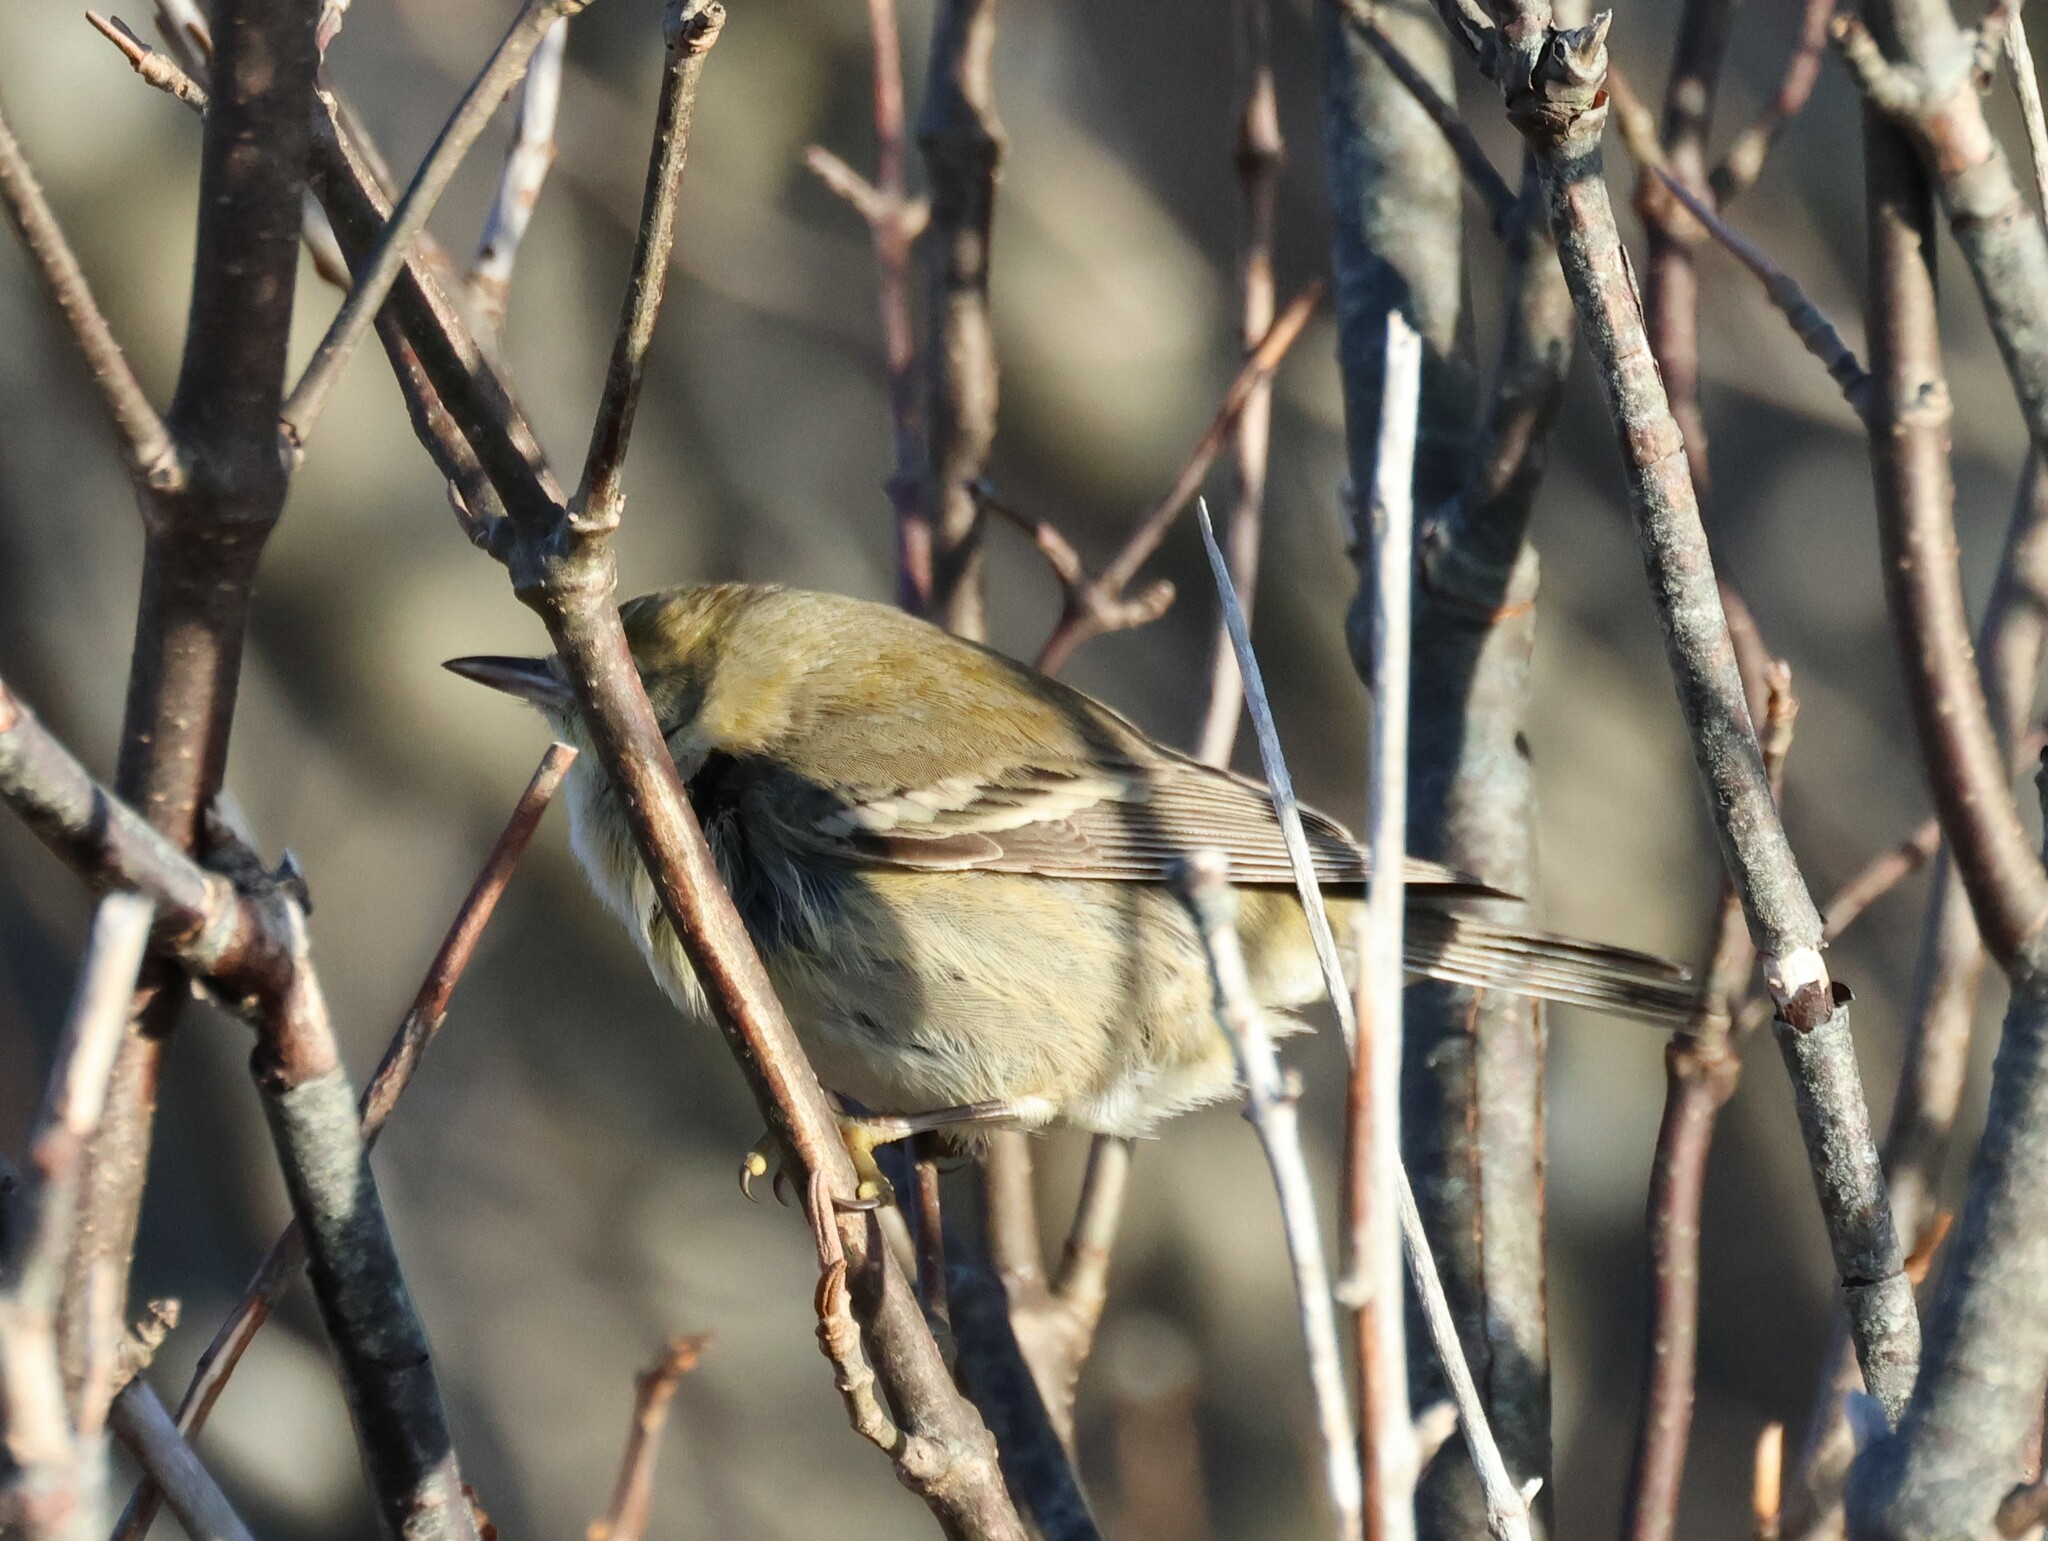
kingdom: Animalia
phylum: Chordata
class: Aves
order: Passeriformes
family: Parulidae
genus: Setophaga
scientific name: Setophaga pinus
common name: Pine warbler
